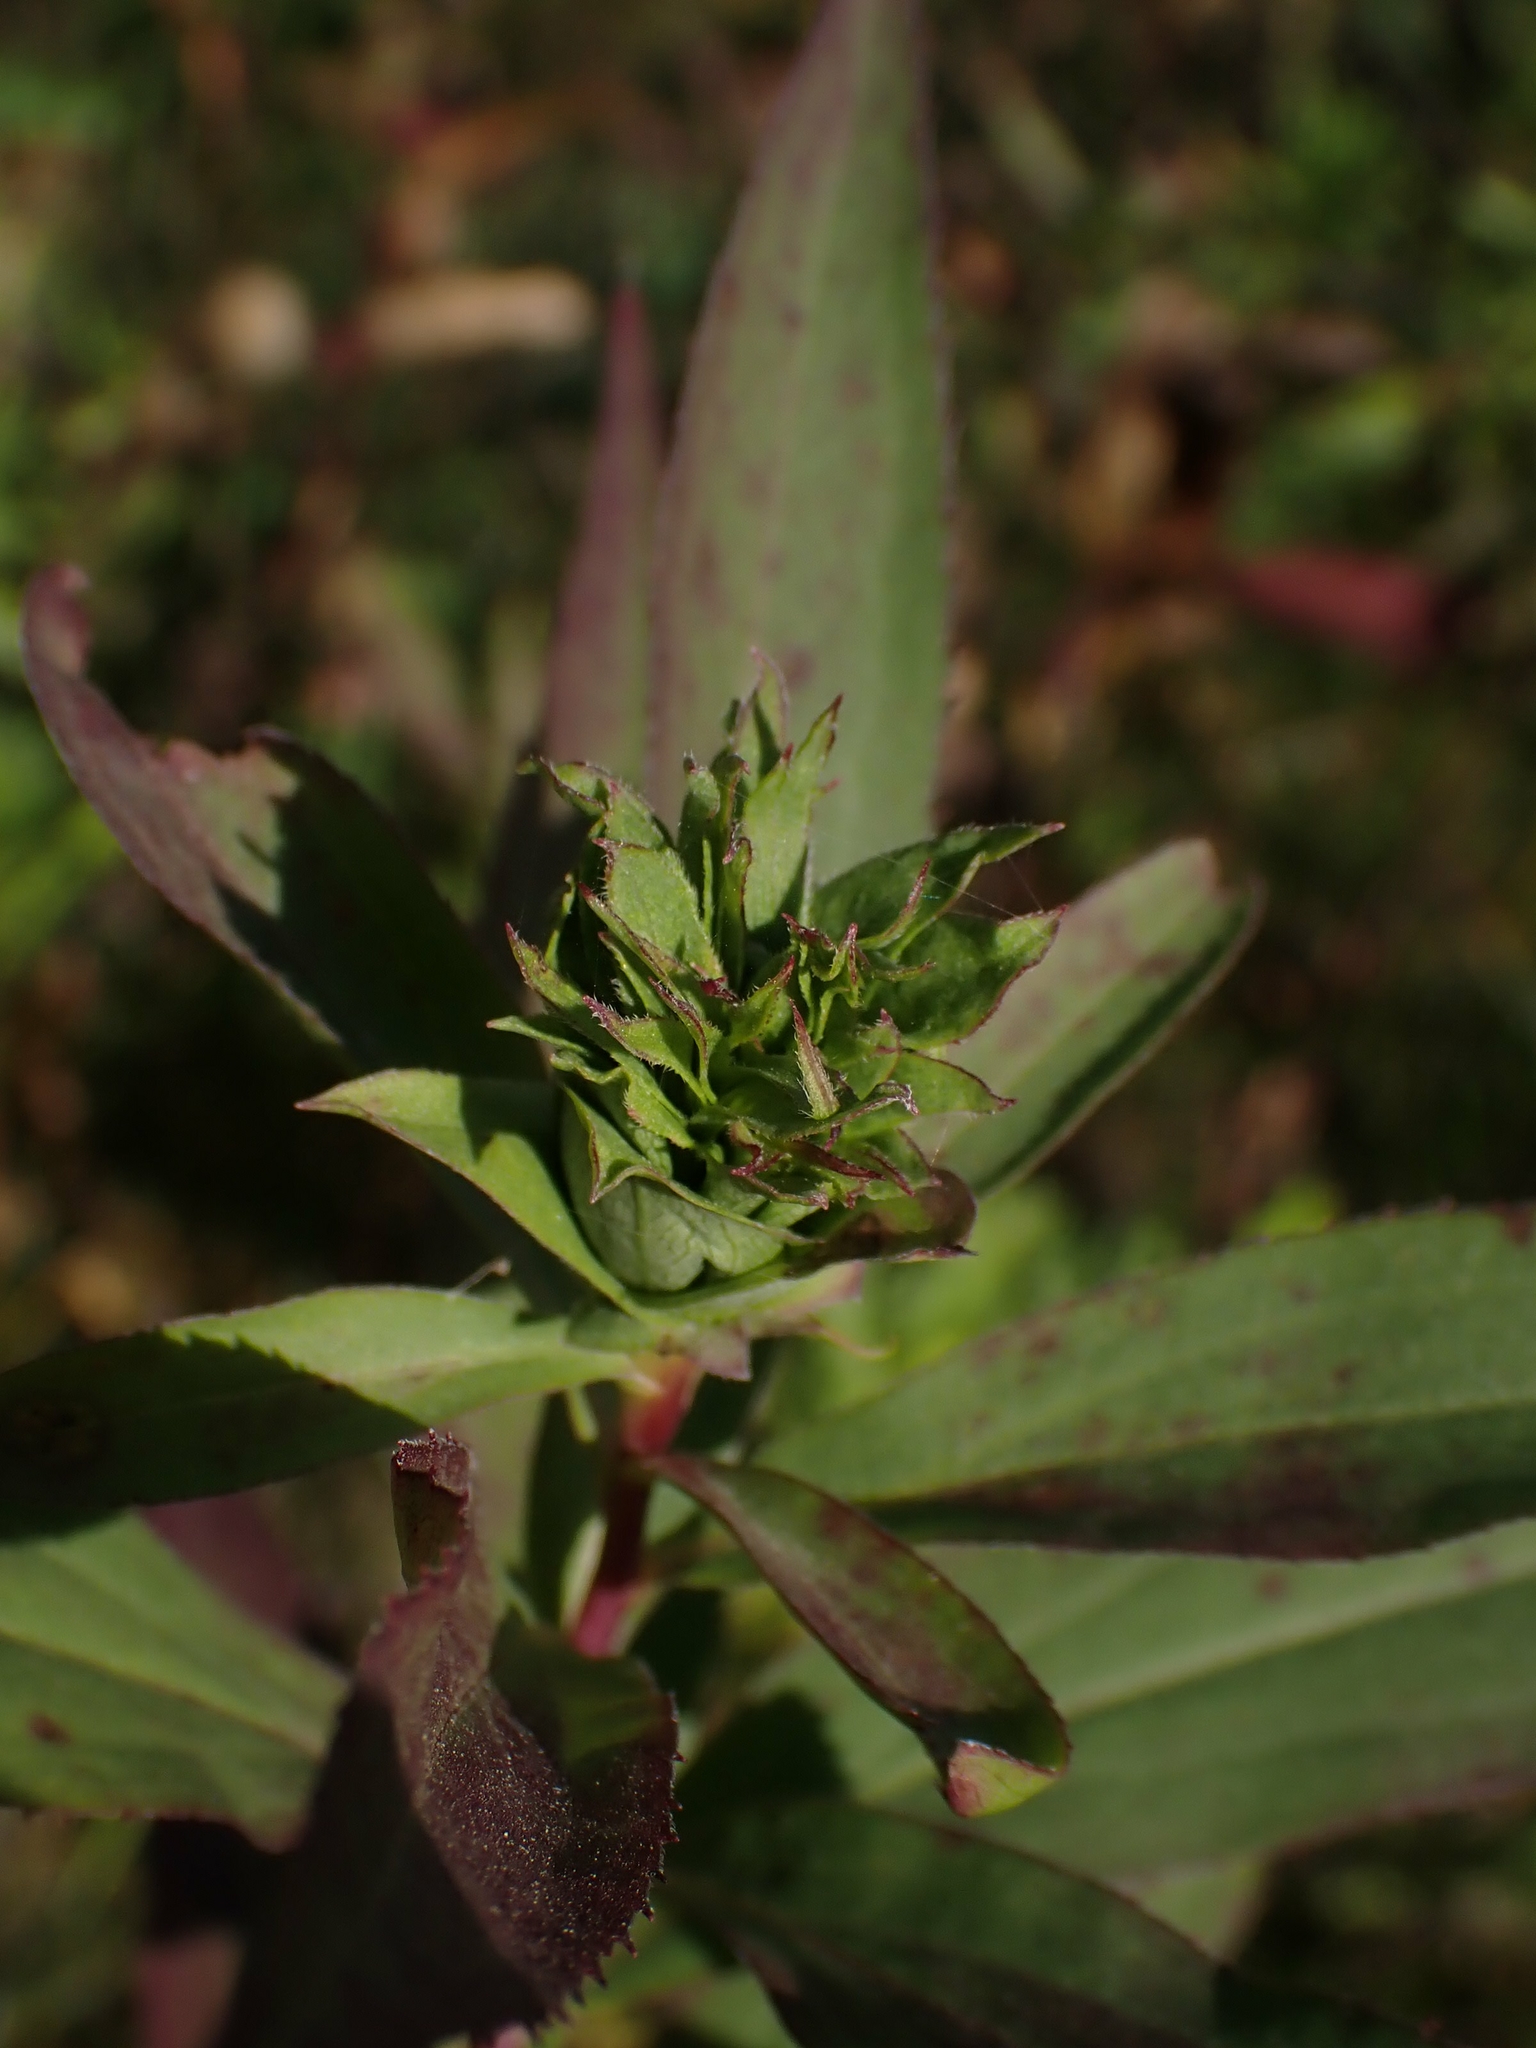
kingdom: Animalia
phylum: Arthropoda
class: Insecta
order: Diptera
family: Cecidomyiidae
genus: Rhopalomyia
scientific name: Rhopalomyia solidaginis
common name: Goldenrod bunch gall midge
